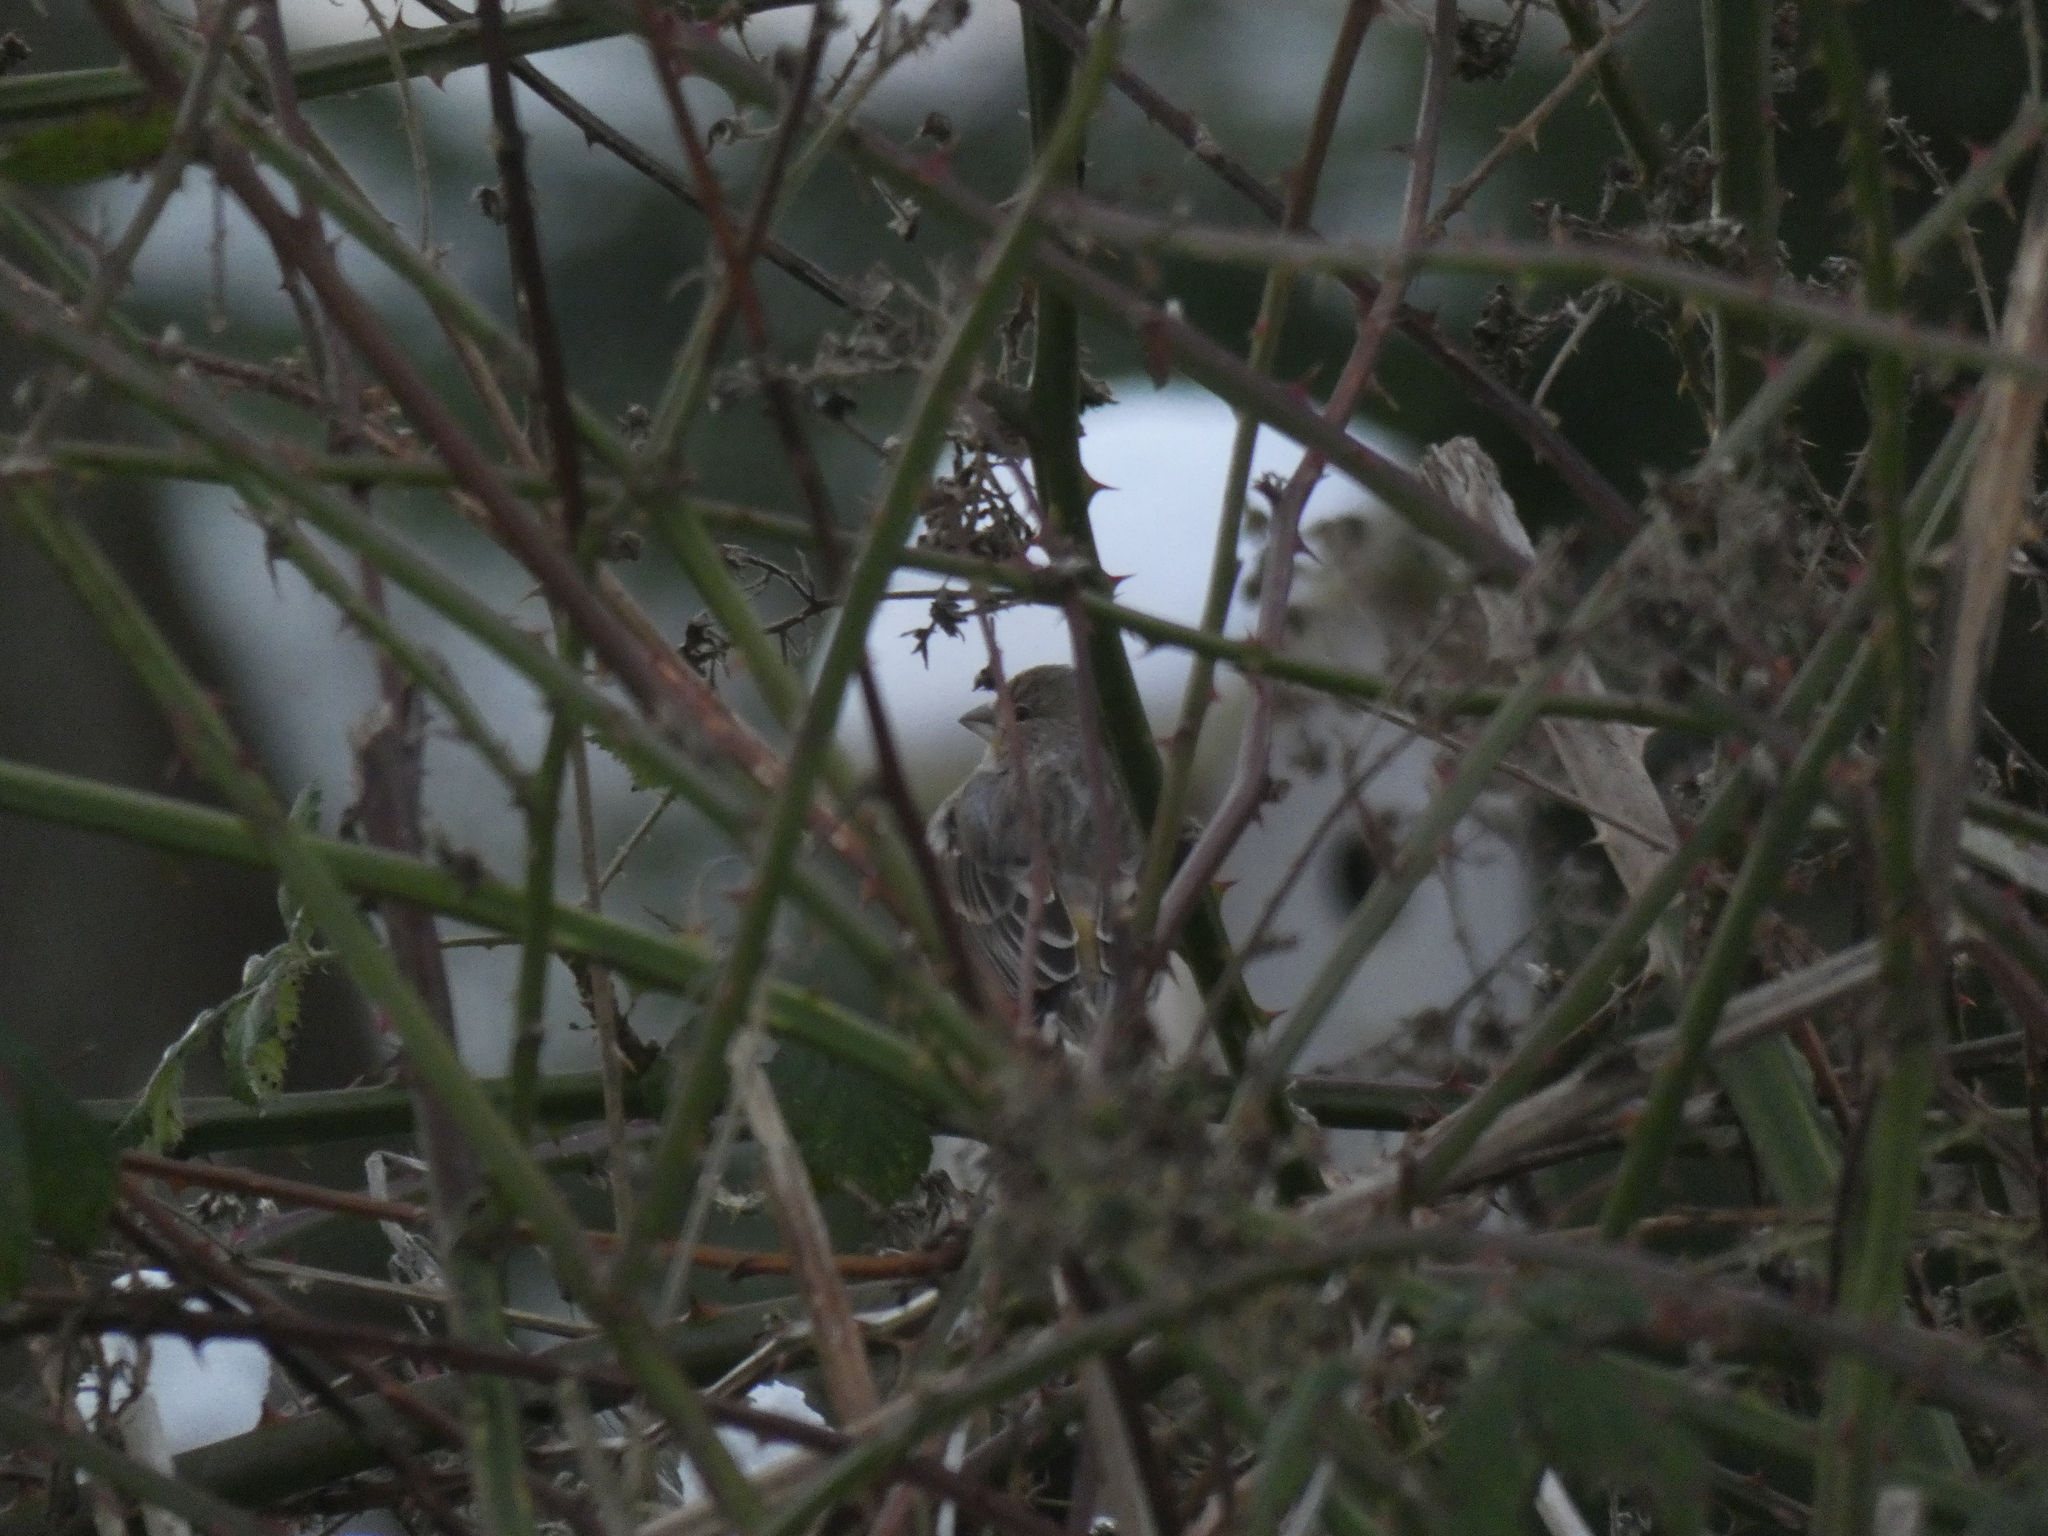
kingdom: Animalia
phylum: Chordata
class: Aves
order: Passeriformes
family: Fringillidae
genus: Haemorhous
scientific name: Haemorhous mexicanus
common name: House finch
